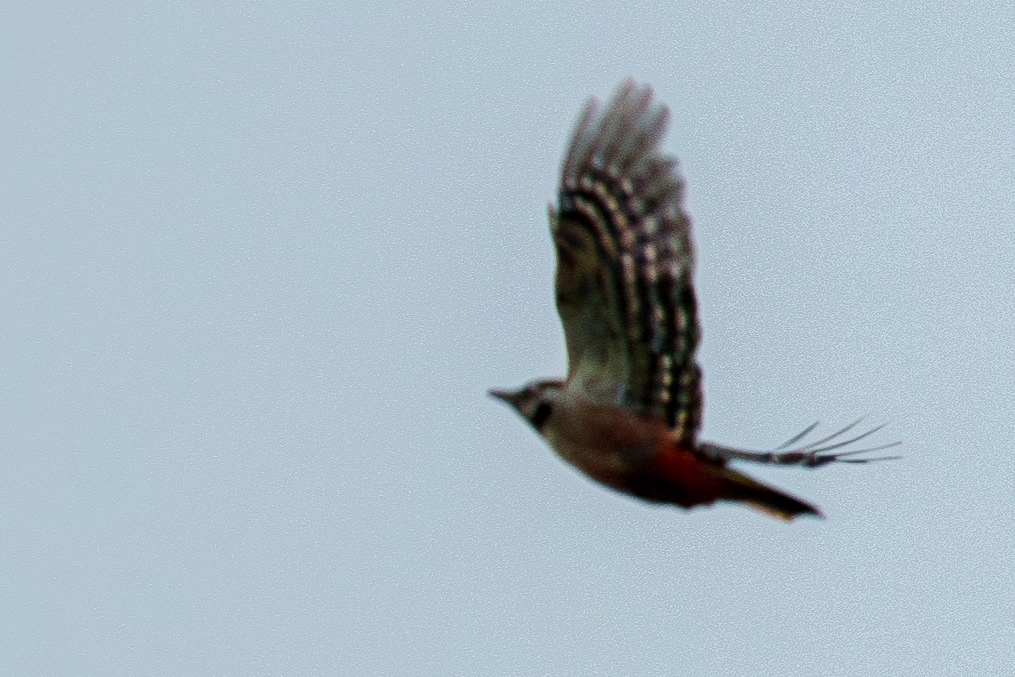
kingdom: Animalia
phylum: Chordata
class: Aves
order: Piciformes
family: Picidae
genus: Dendrocopos
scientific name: Dendrocopos major
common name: Great spotted woodpecker
